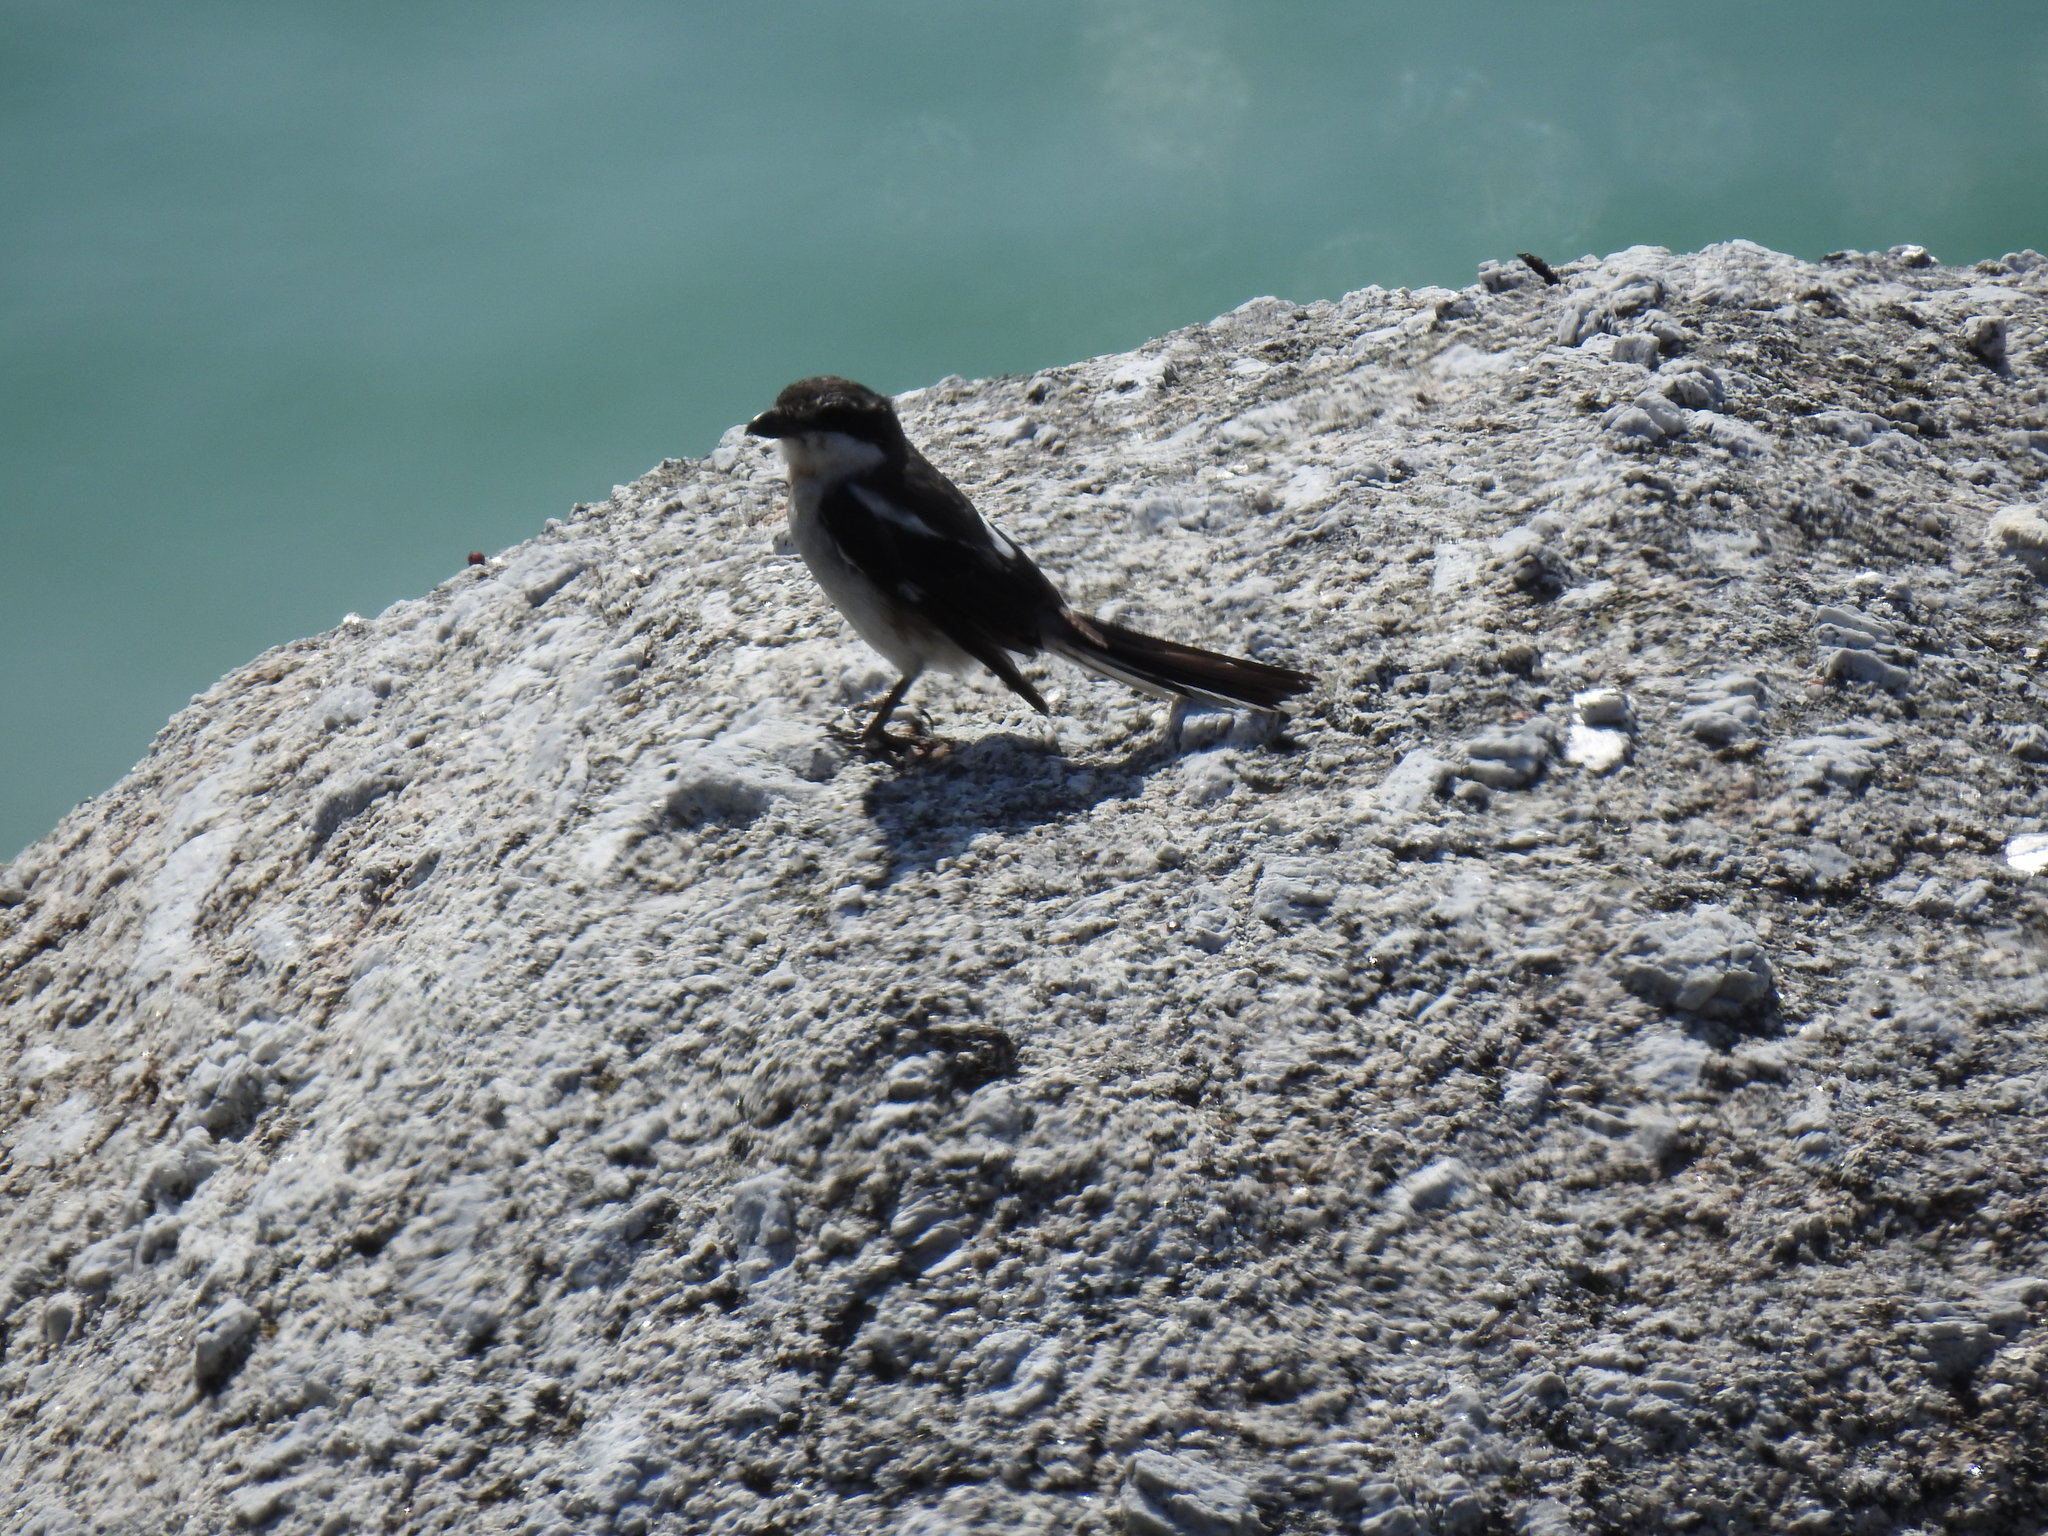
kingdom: Animalia
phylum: Chordata
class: Aves
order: Passeriformes
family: Laniidae
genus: Lanius
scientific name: Lanius collaris
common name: Southern fiscal
